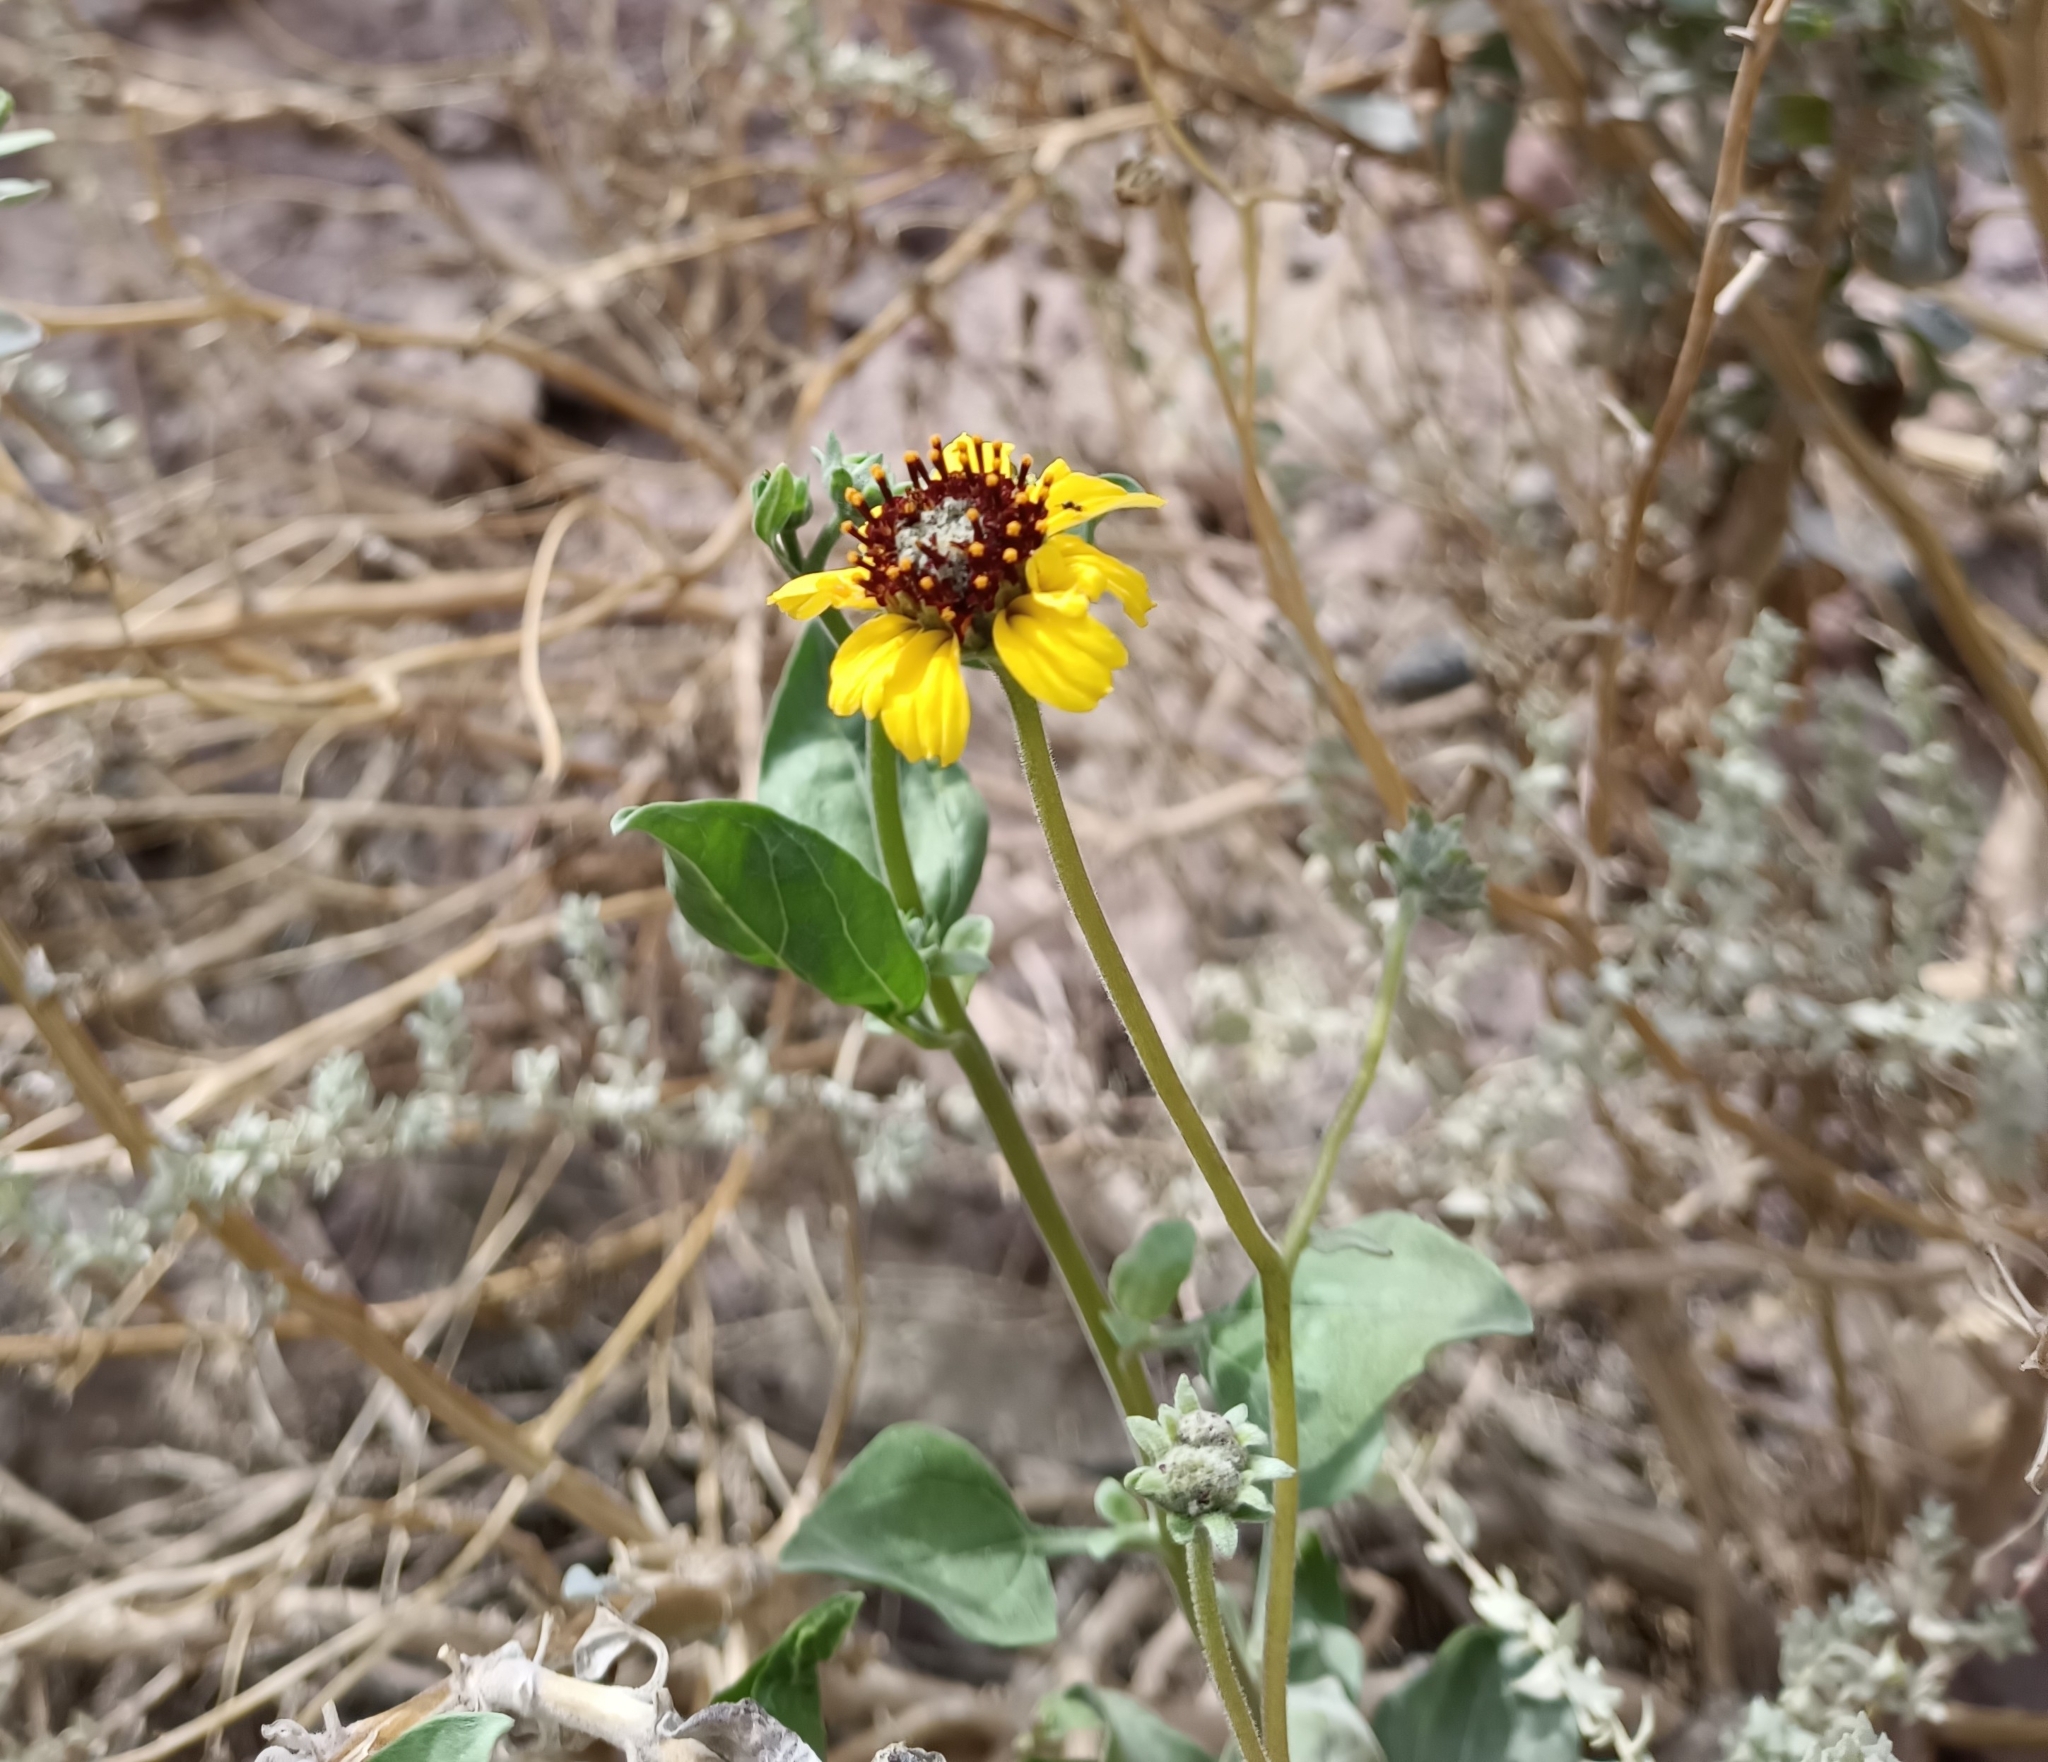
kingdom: Plantae
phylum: Tracheophyta
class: Magnoliopsida
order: Asterales
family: Asteraceae
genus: Encelia
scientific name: Encelia canescens
